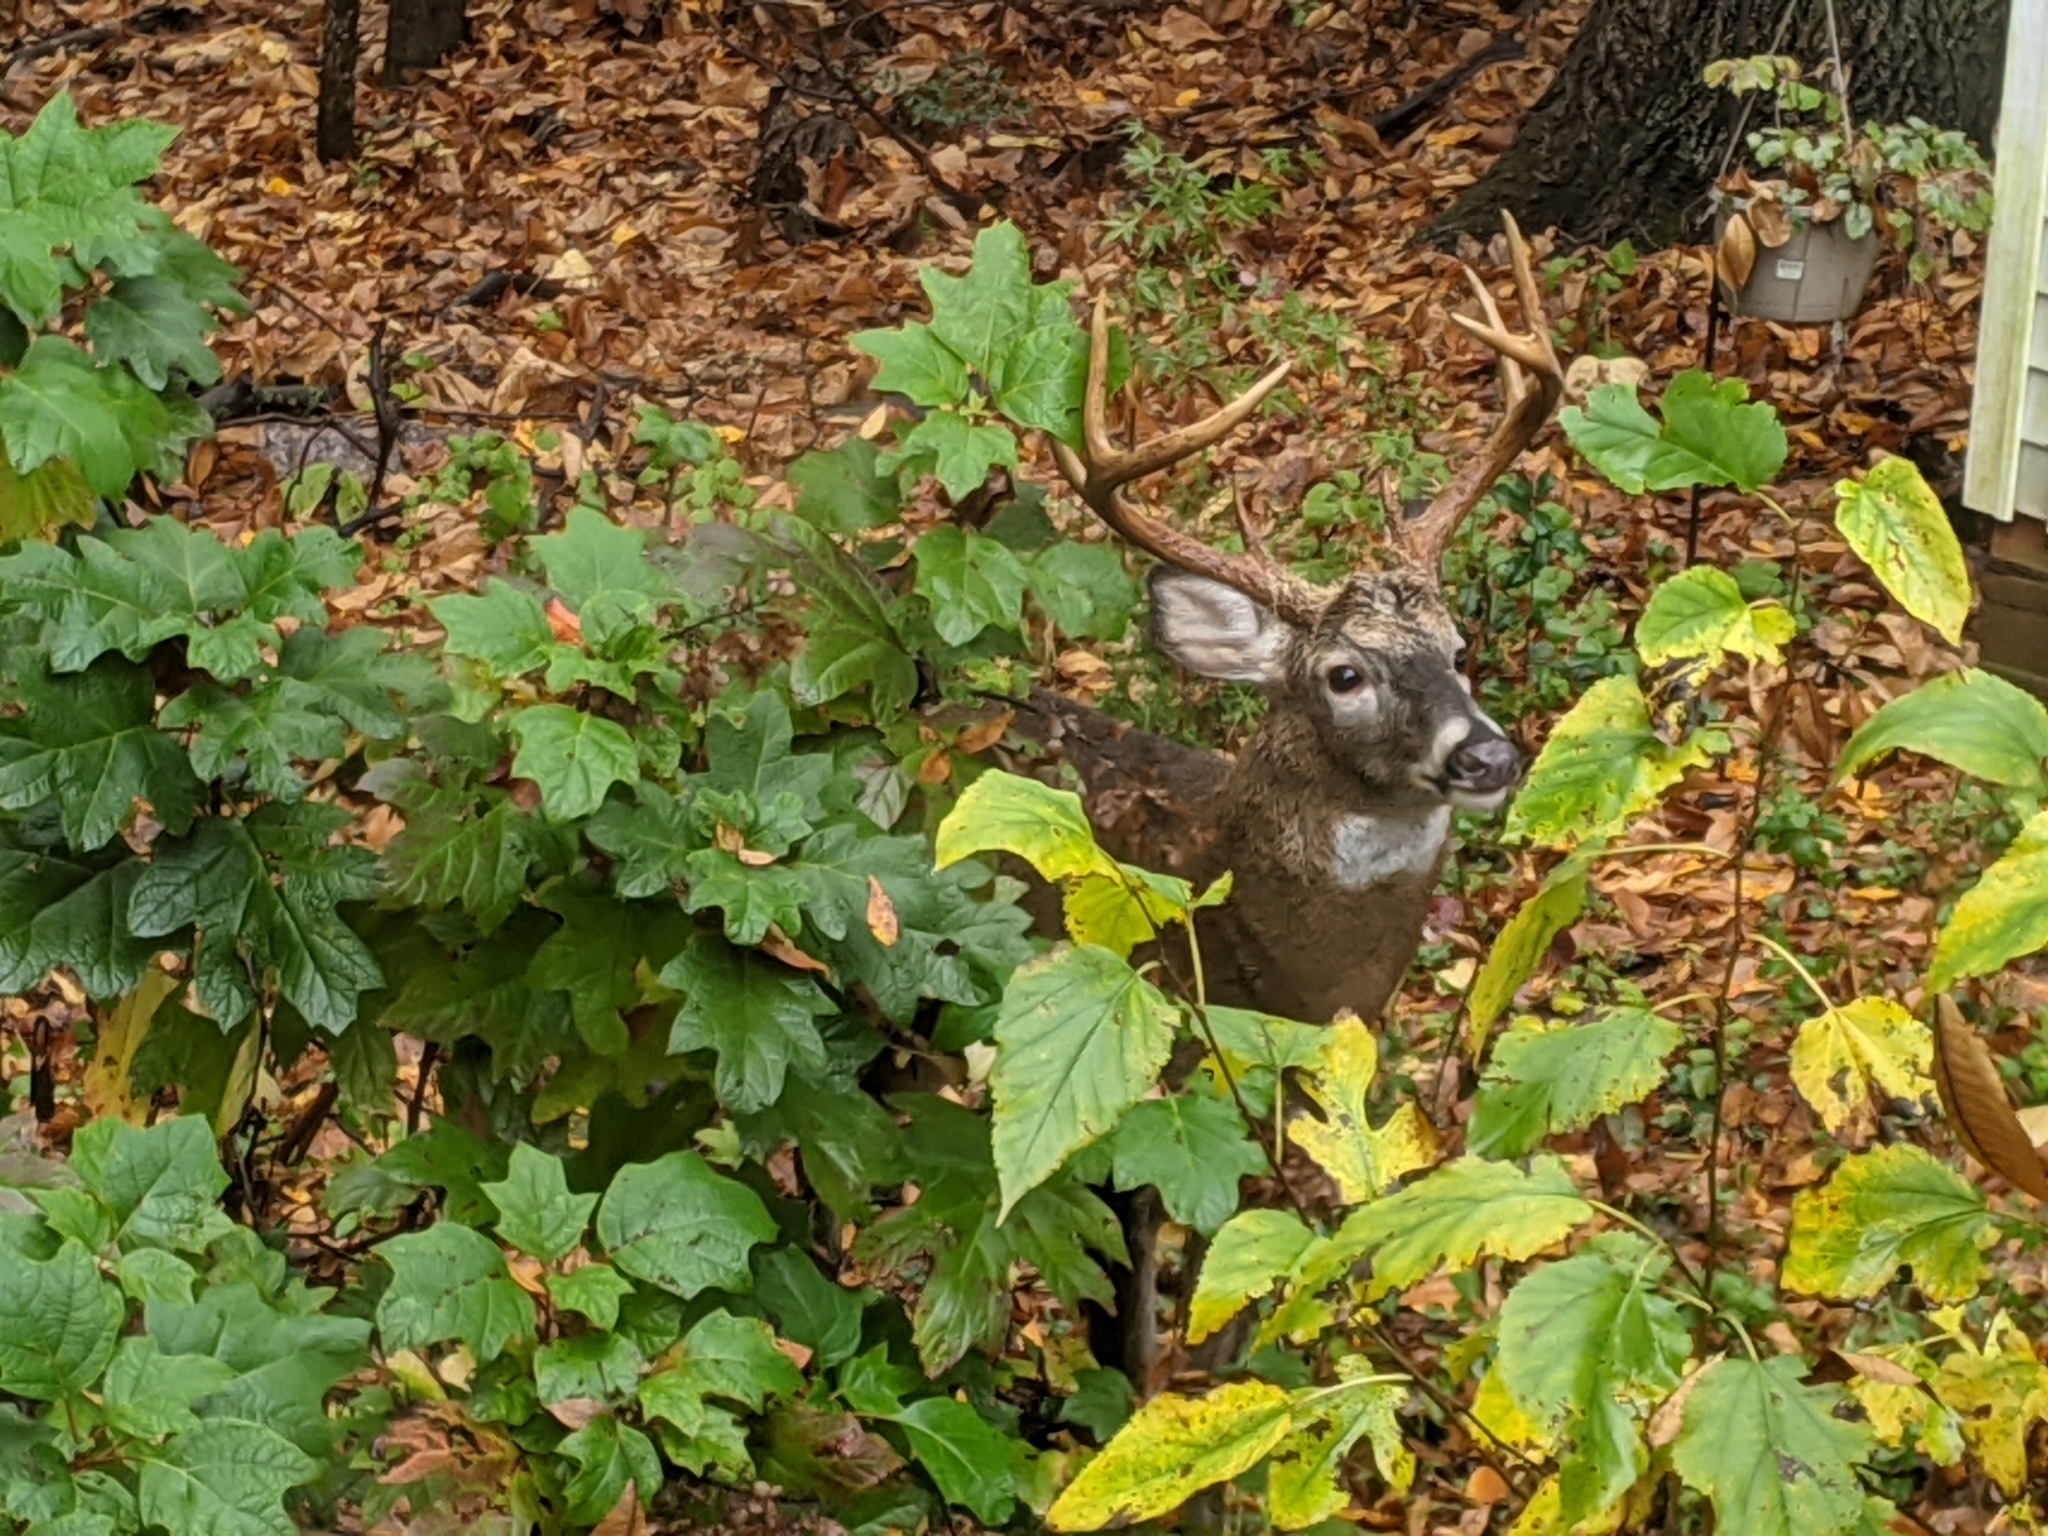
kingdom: Animalia
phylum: Chordata
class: Mammalia
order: Artiodactyla
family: Cervidae
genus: Odocoileus
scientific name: Odocoileus virginianus
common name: White-tailed deer
